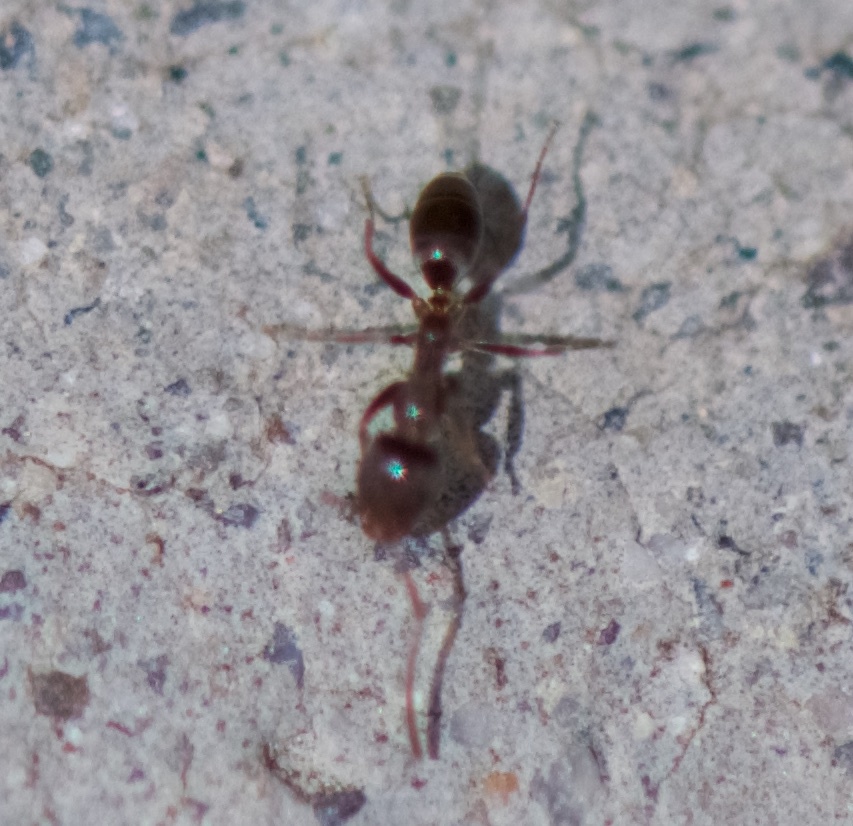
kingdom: Animalia
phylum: Arthropoda
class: Insecta
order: Hymenoptera
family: Formicidae
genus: Linepithema
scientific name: Linepithema humile
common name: Argentine ant
